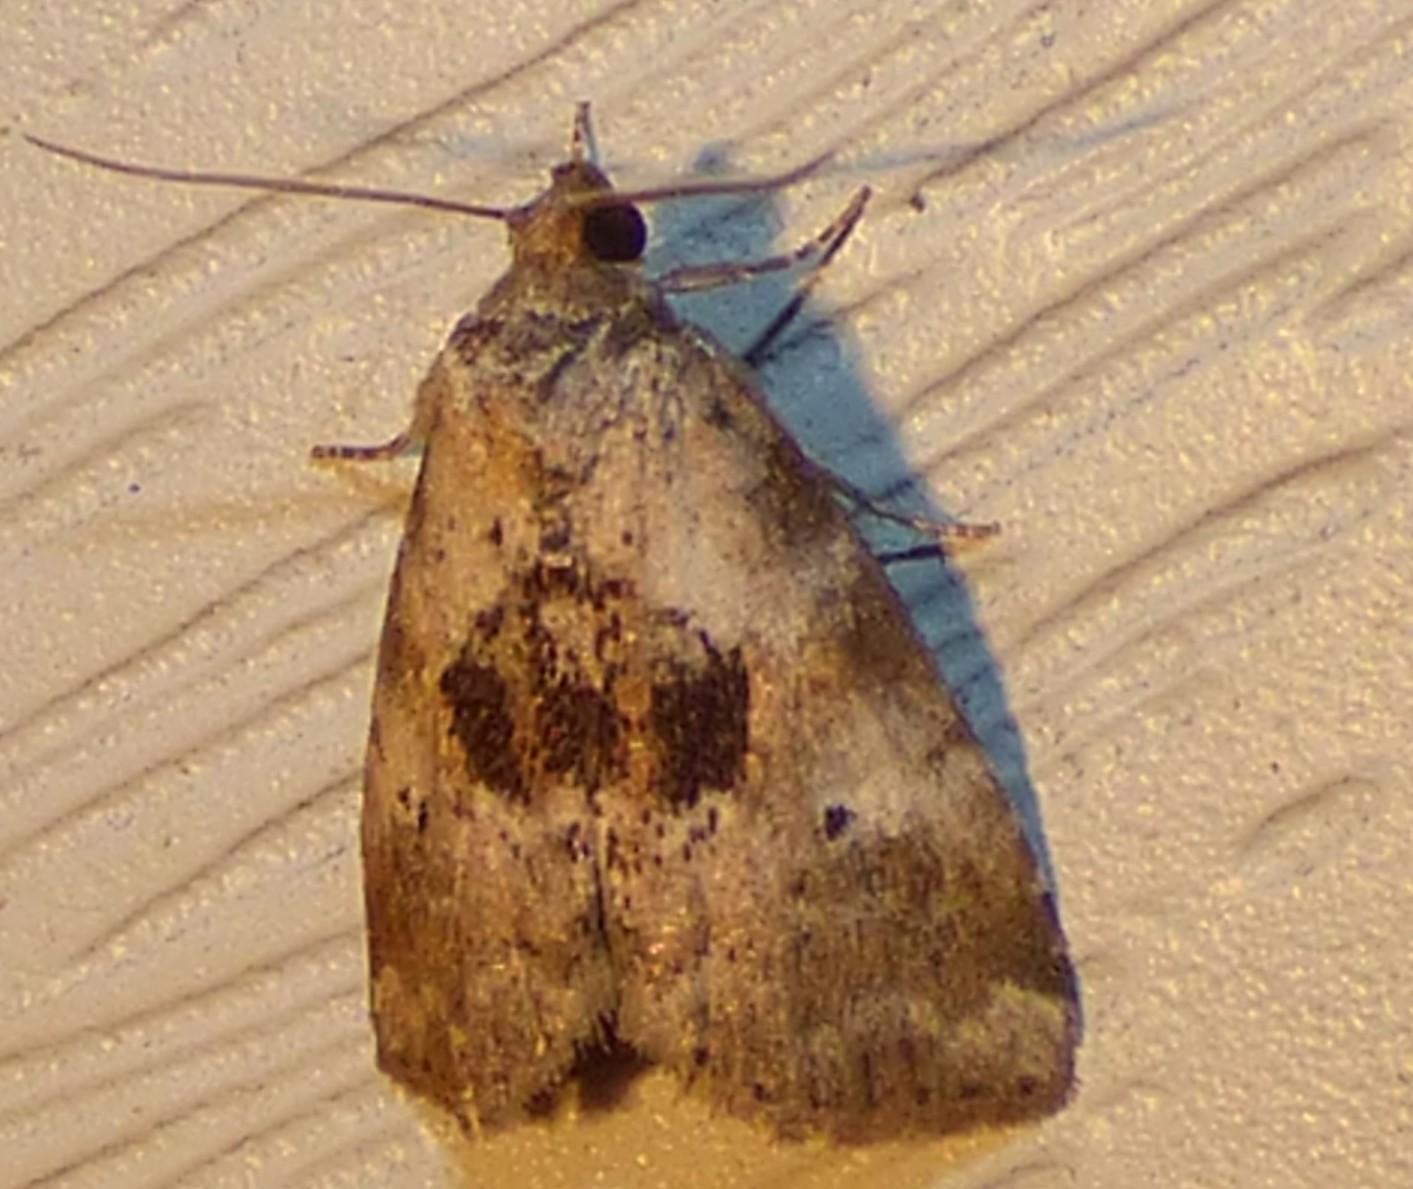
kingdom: Animalia
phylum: Arthropoda
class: Insecta
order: Lepidoptera
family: Erebidae
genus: Hyperstrotia
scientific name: Hyperstrotia secta
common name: Black-patched graylet
